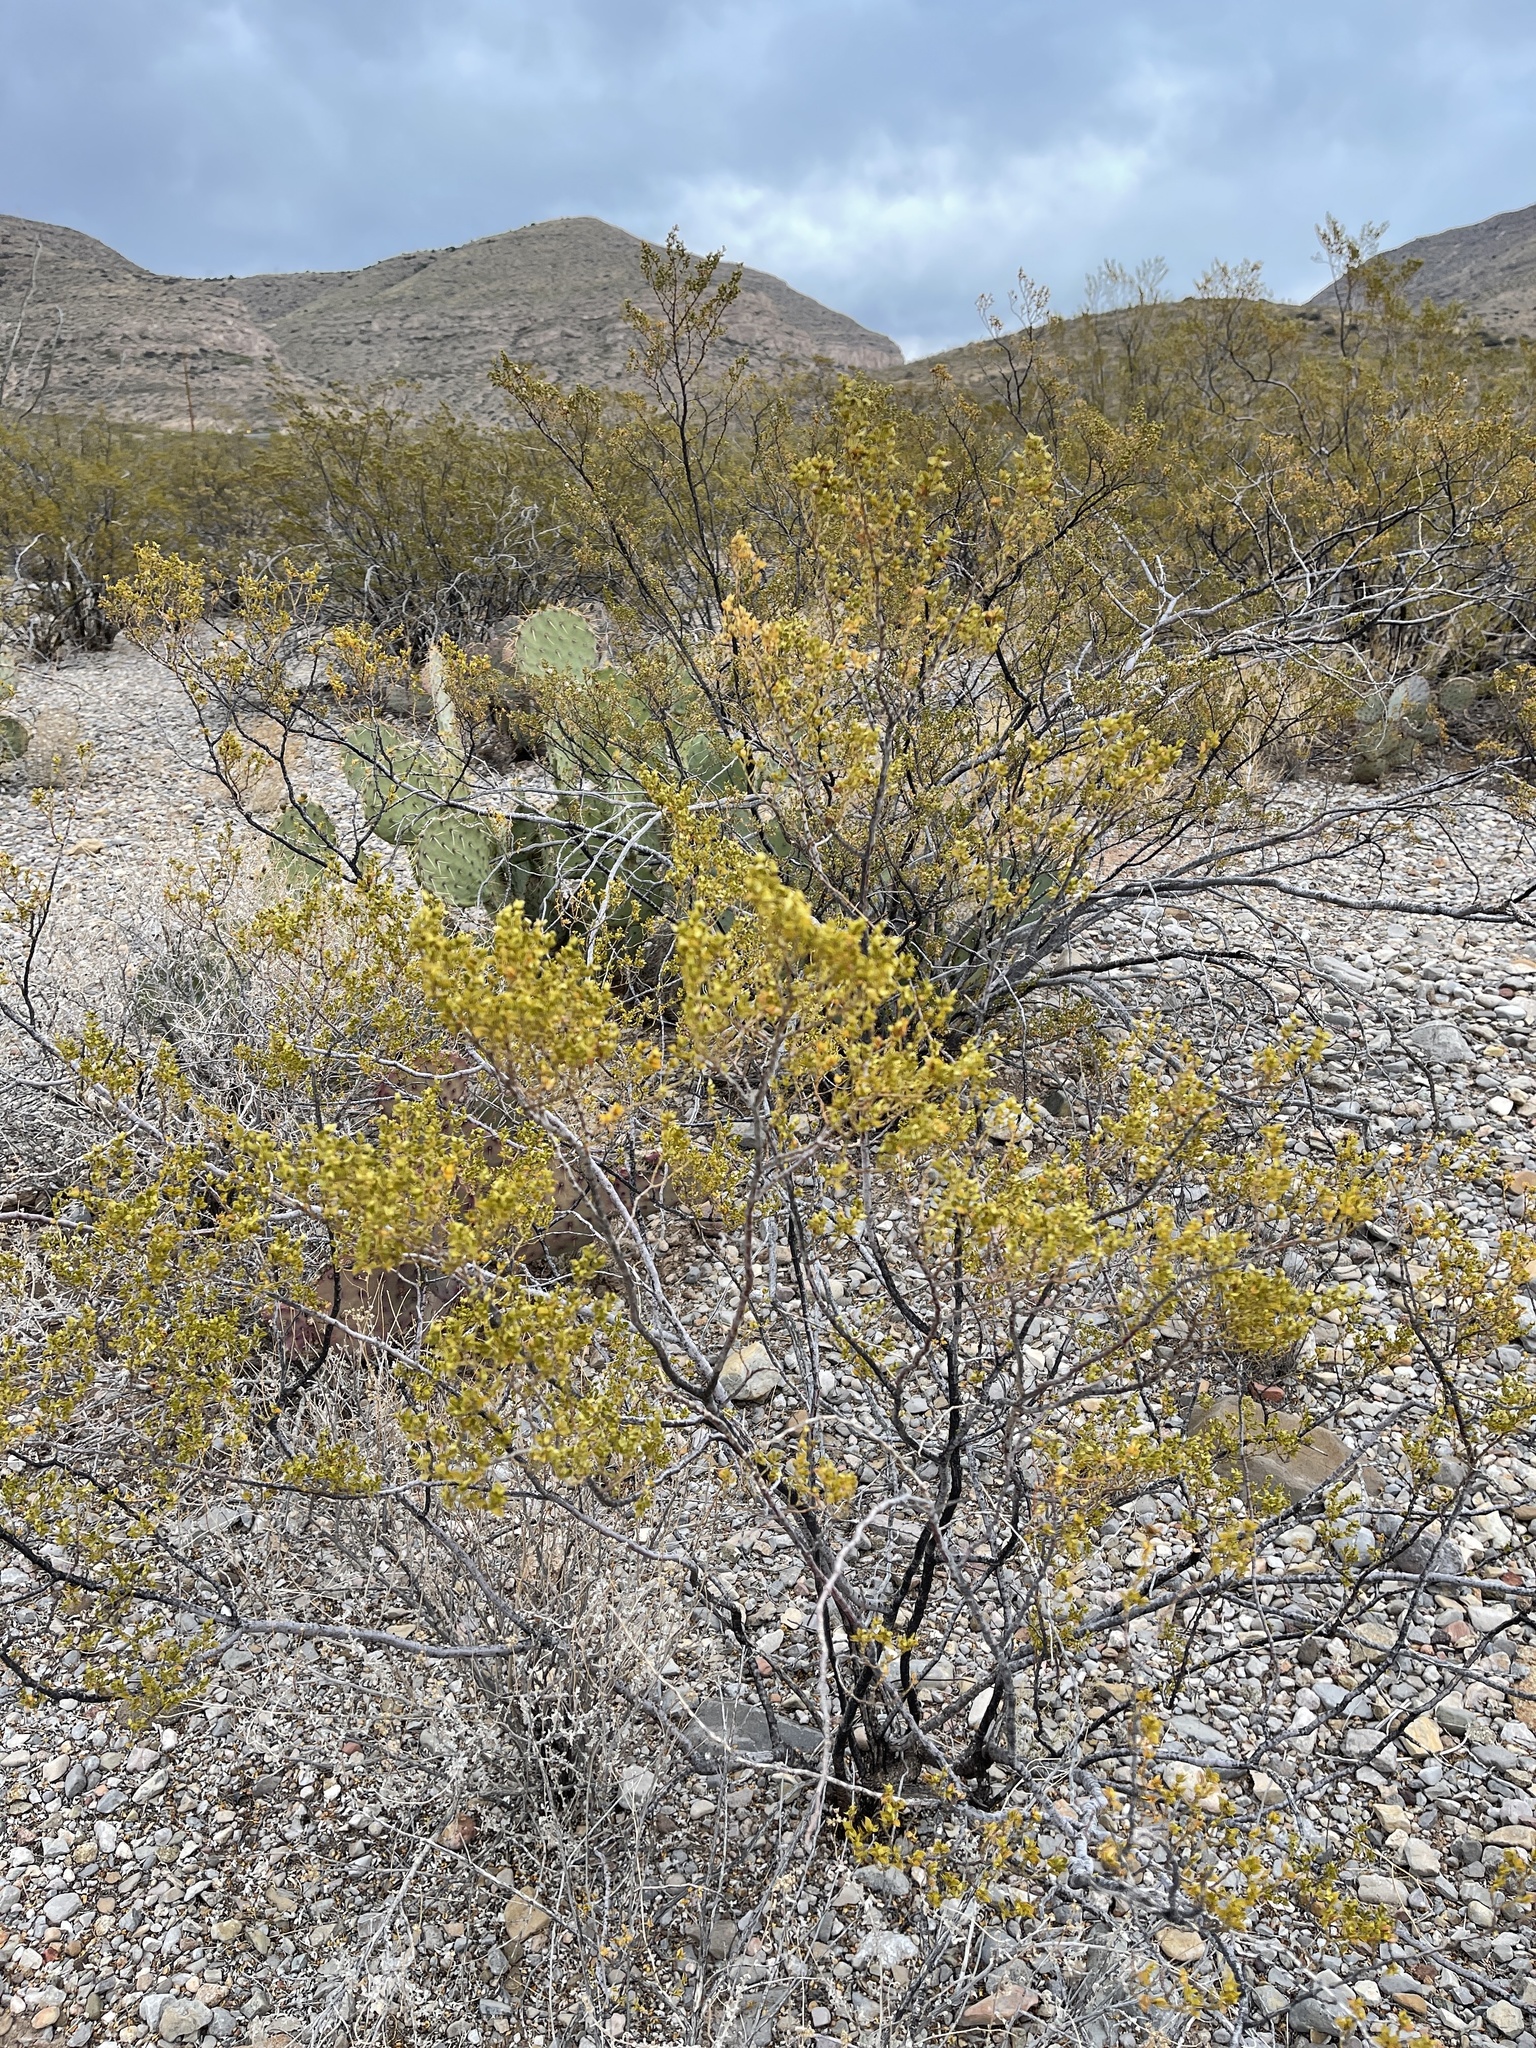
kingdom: Plantae
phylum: Tracheophyta
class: Magnoliopsida
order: Zygophyllales
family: Zygophyllaceae
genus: Larrea
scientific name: Larrea tridentata
